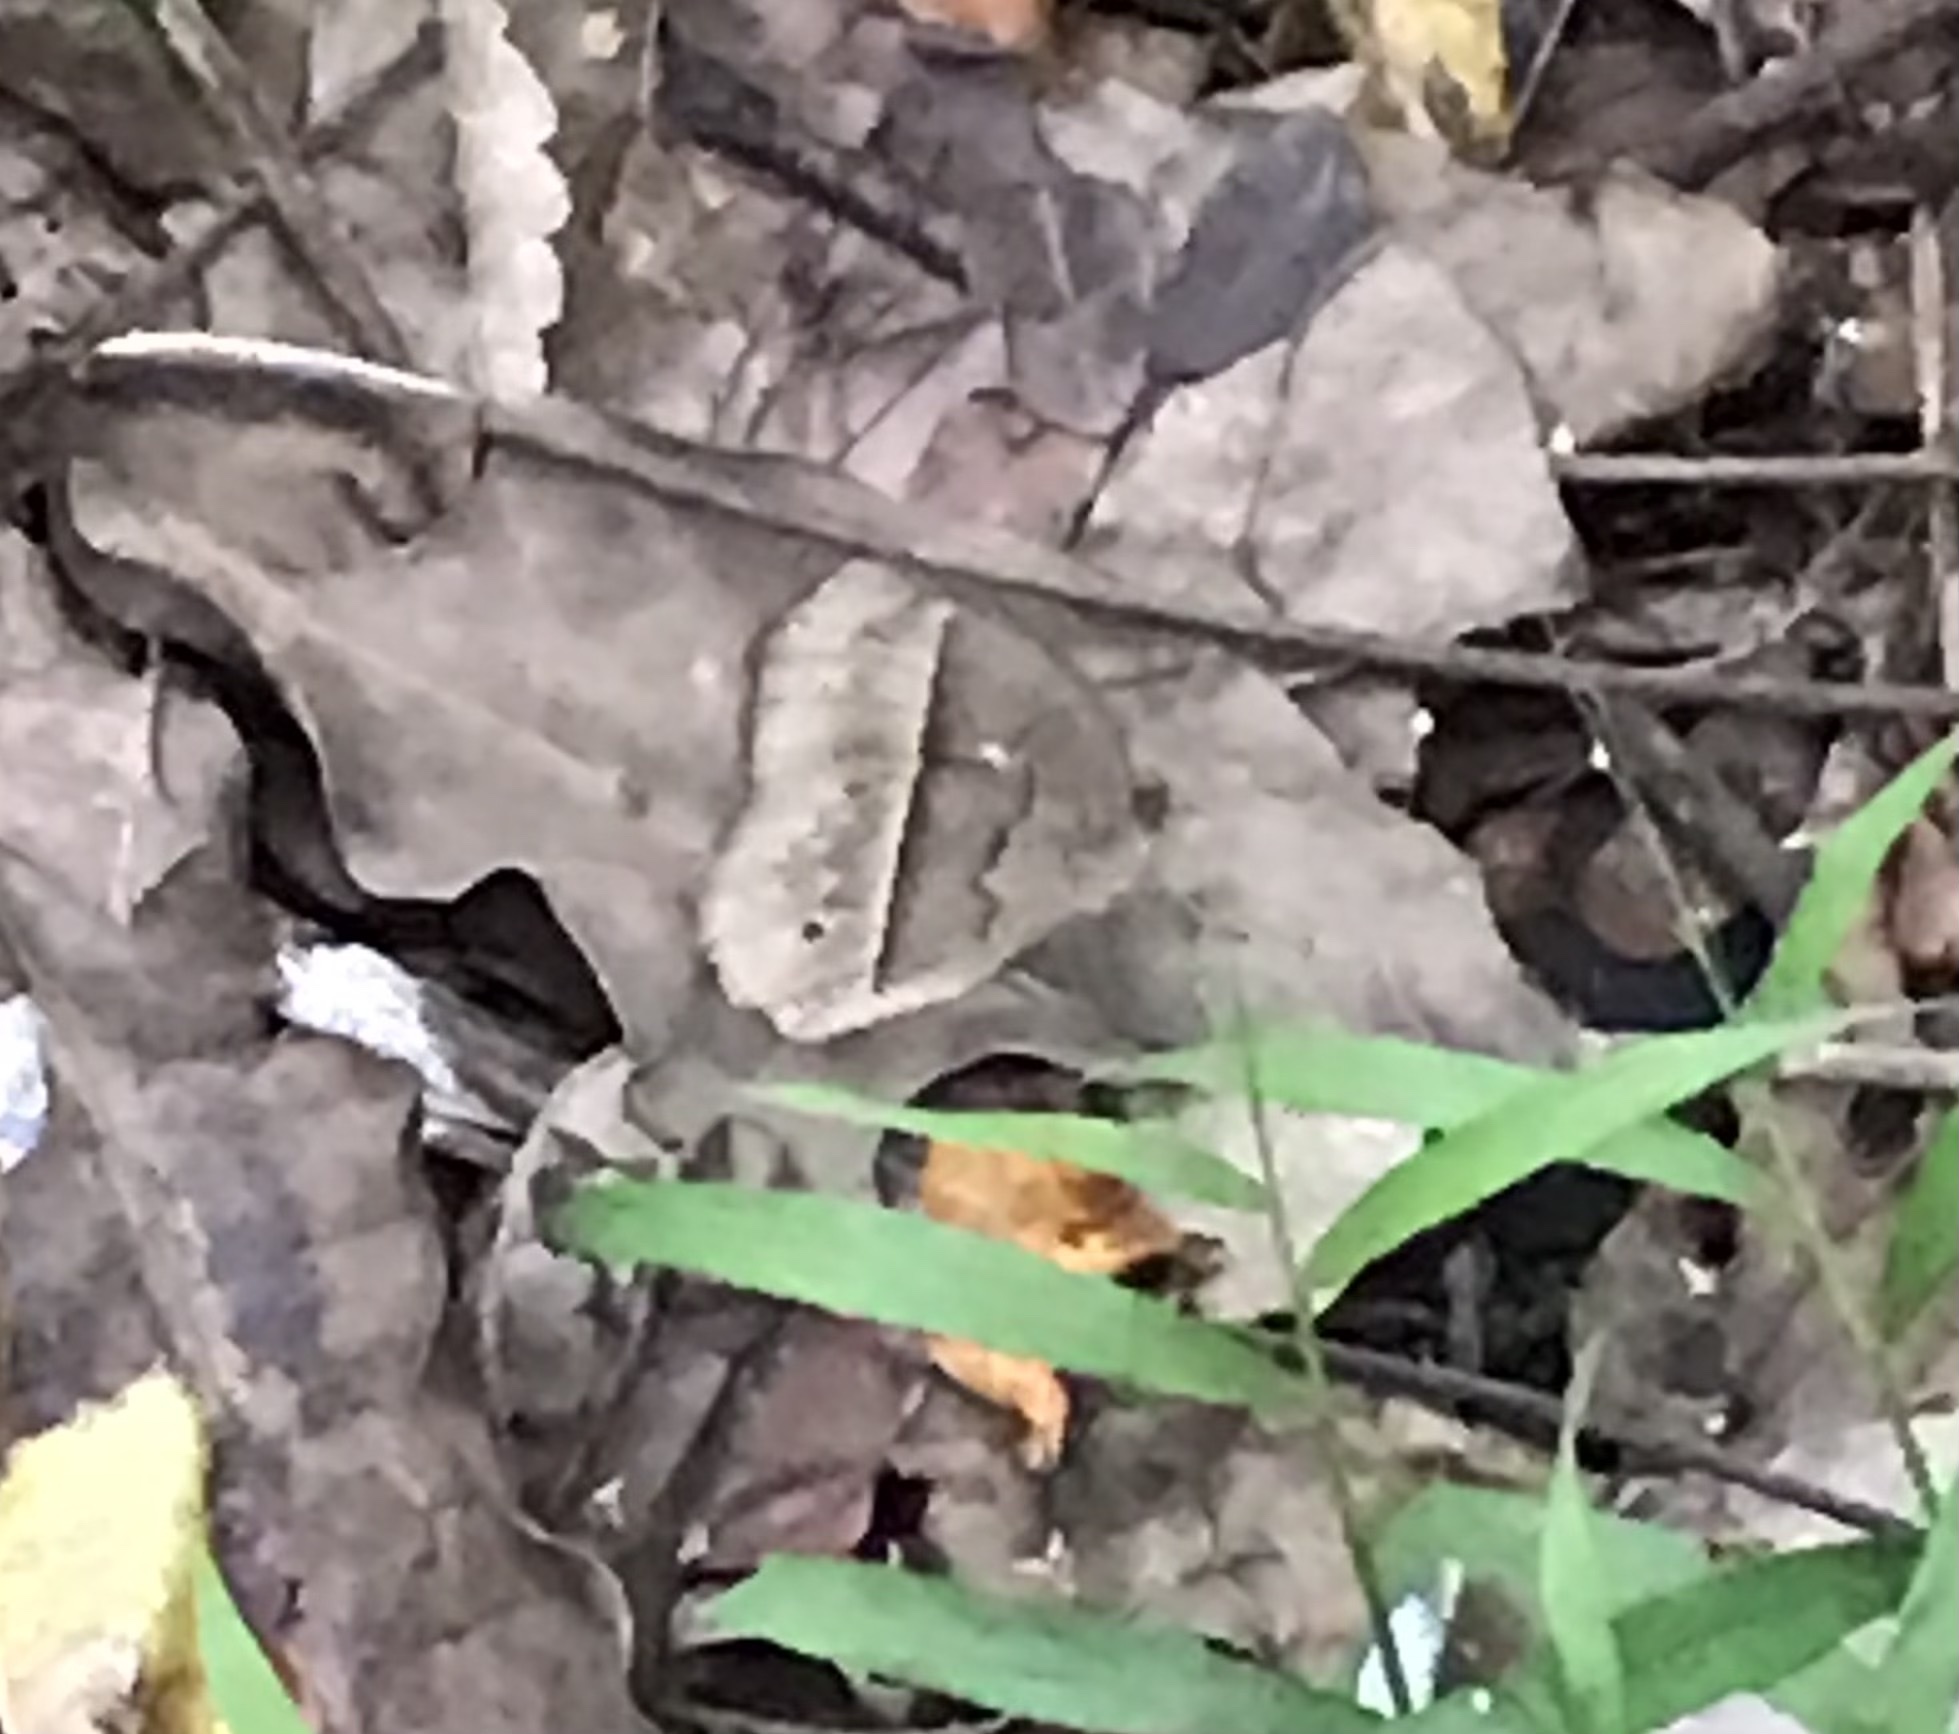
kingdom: Animalia
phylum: Arthropoda
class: Insecta
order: Lepidoptera
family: Nymphalidae
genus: Mycalesis
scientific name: Mycalesis horsfieldii
